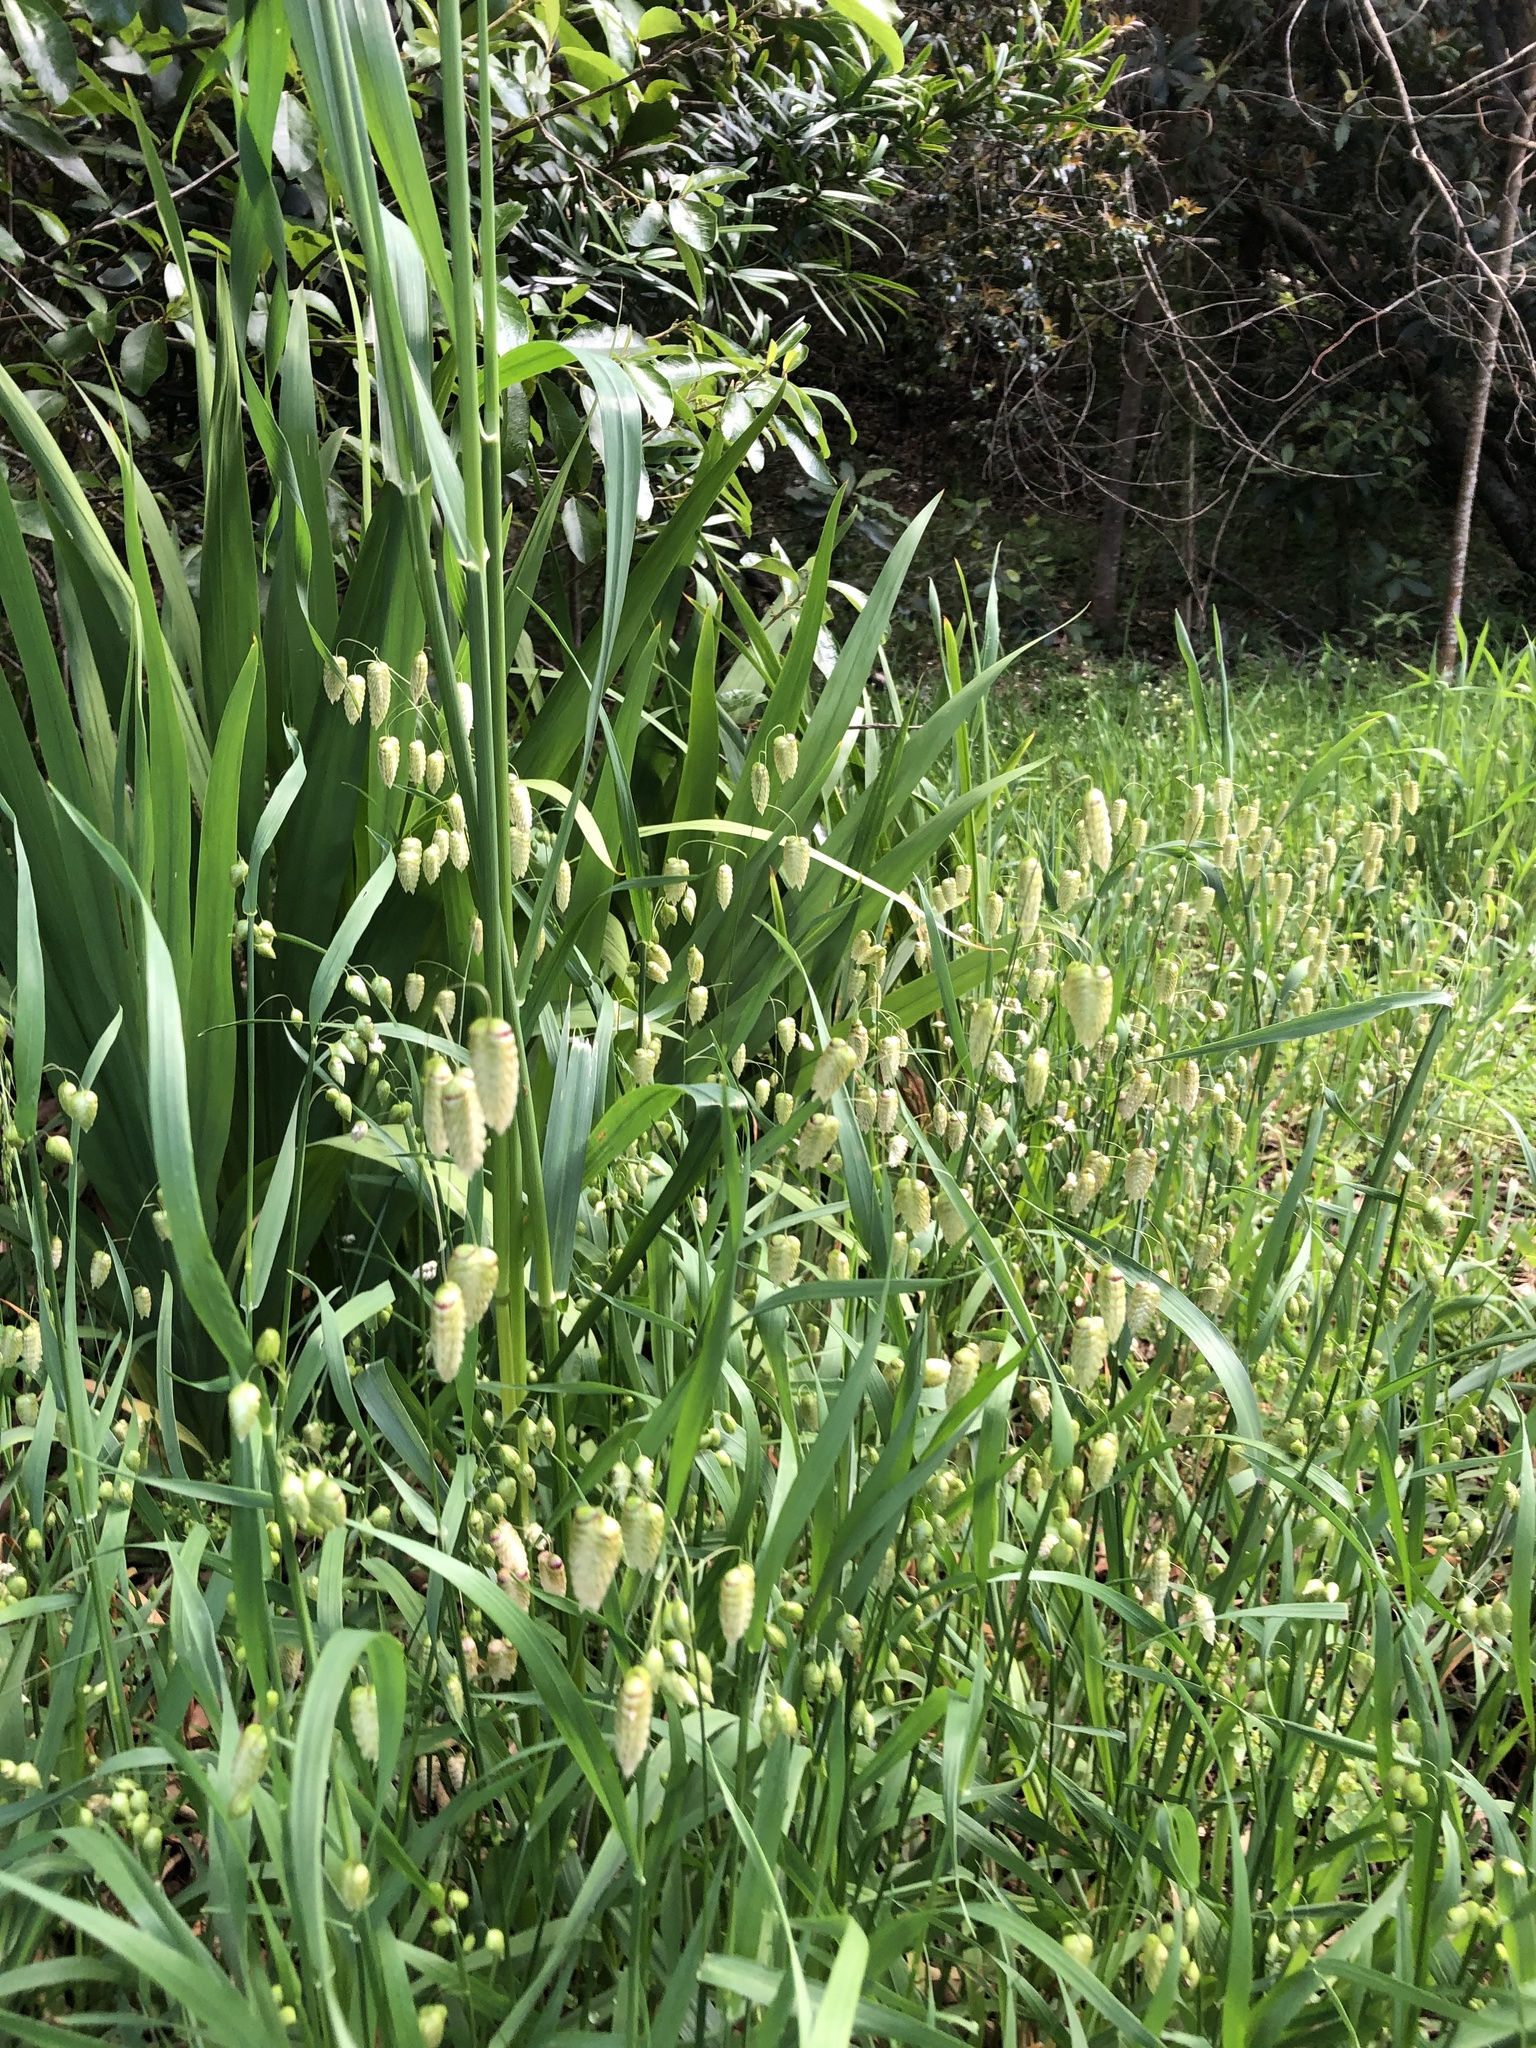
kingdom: Plantae
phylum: Tracheophyta
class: Liliopsida
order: Poales
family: Poaceae
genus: Briza
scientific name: Briza maxima
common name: Big quakinggrass
